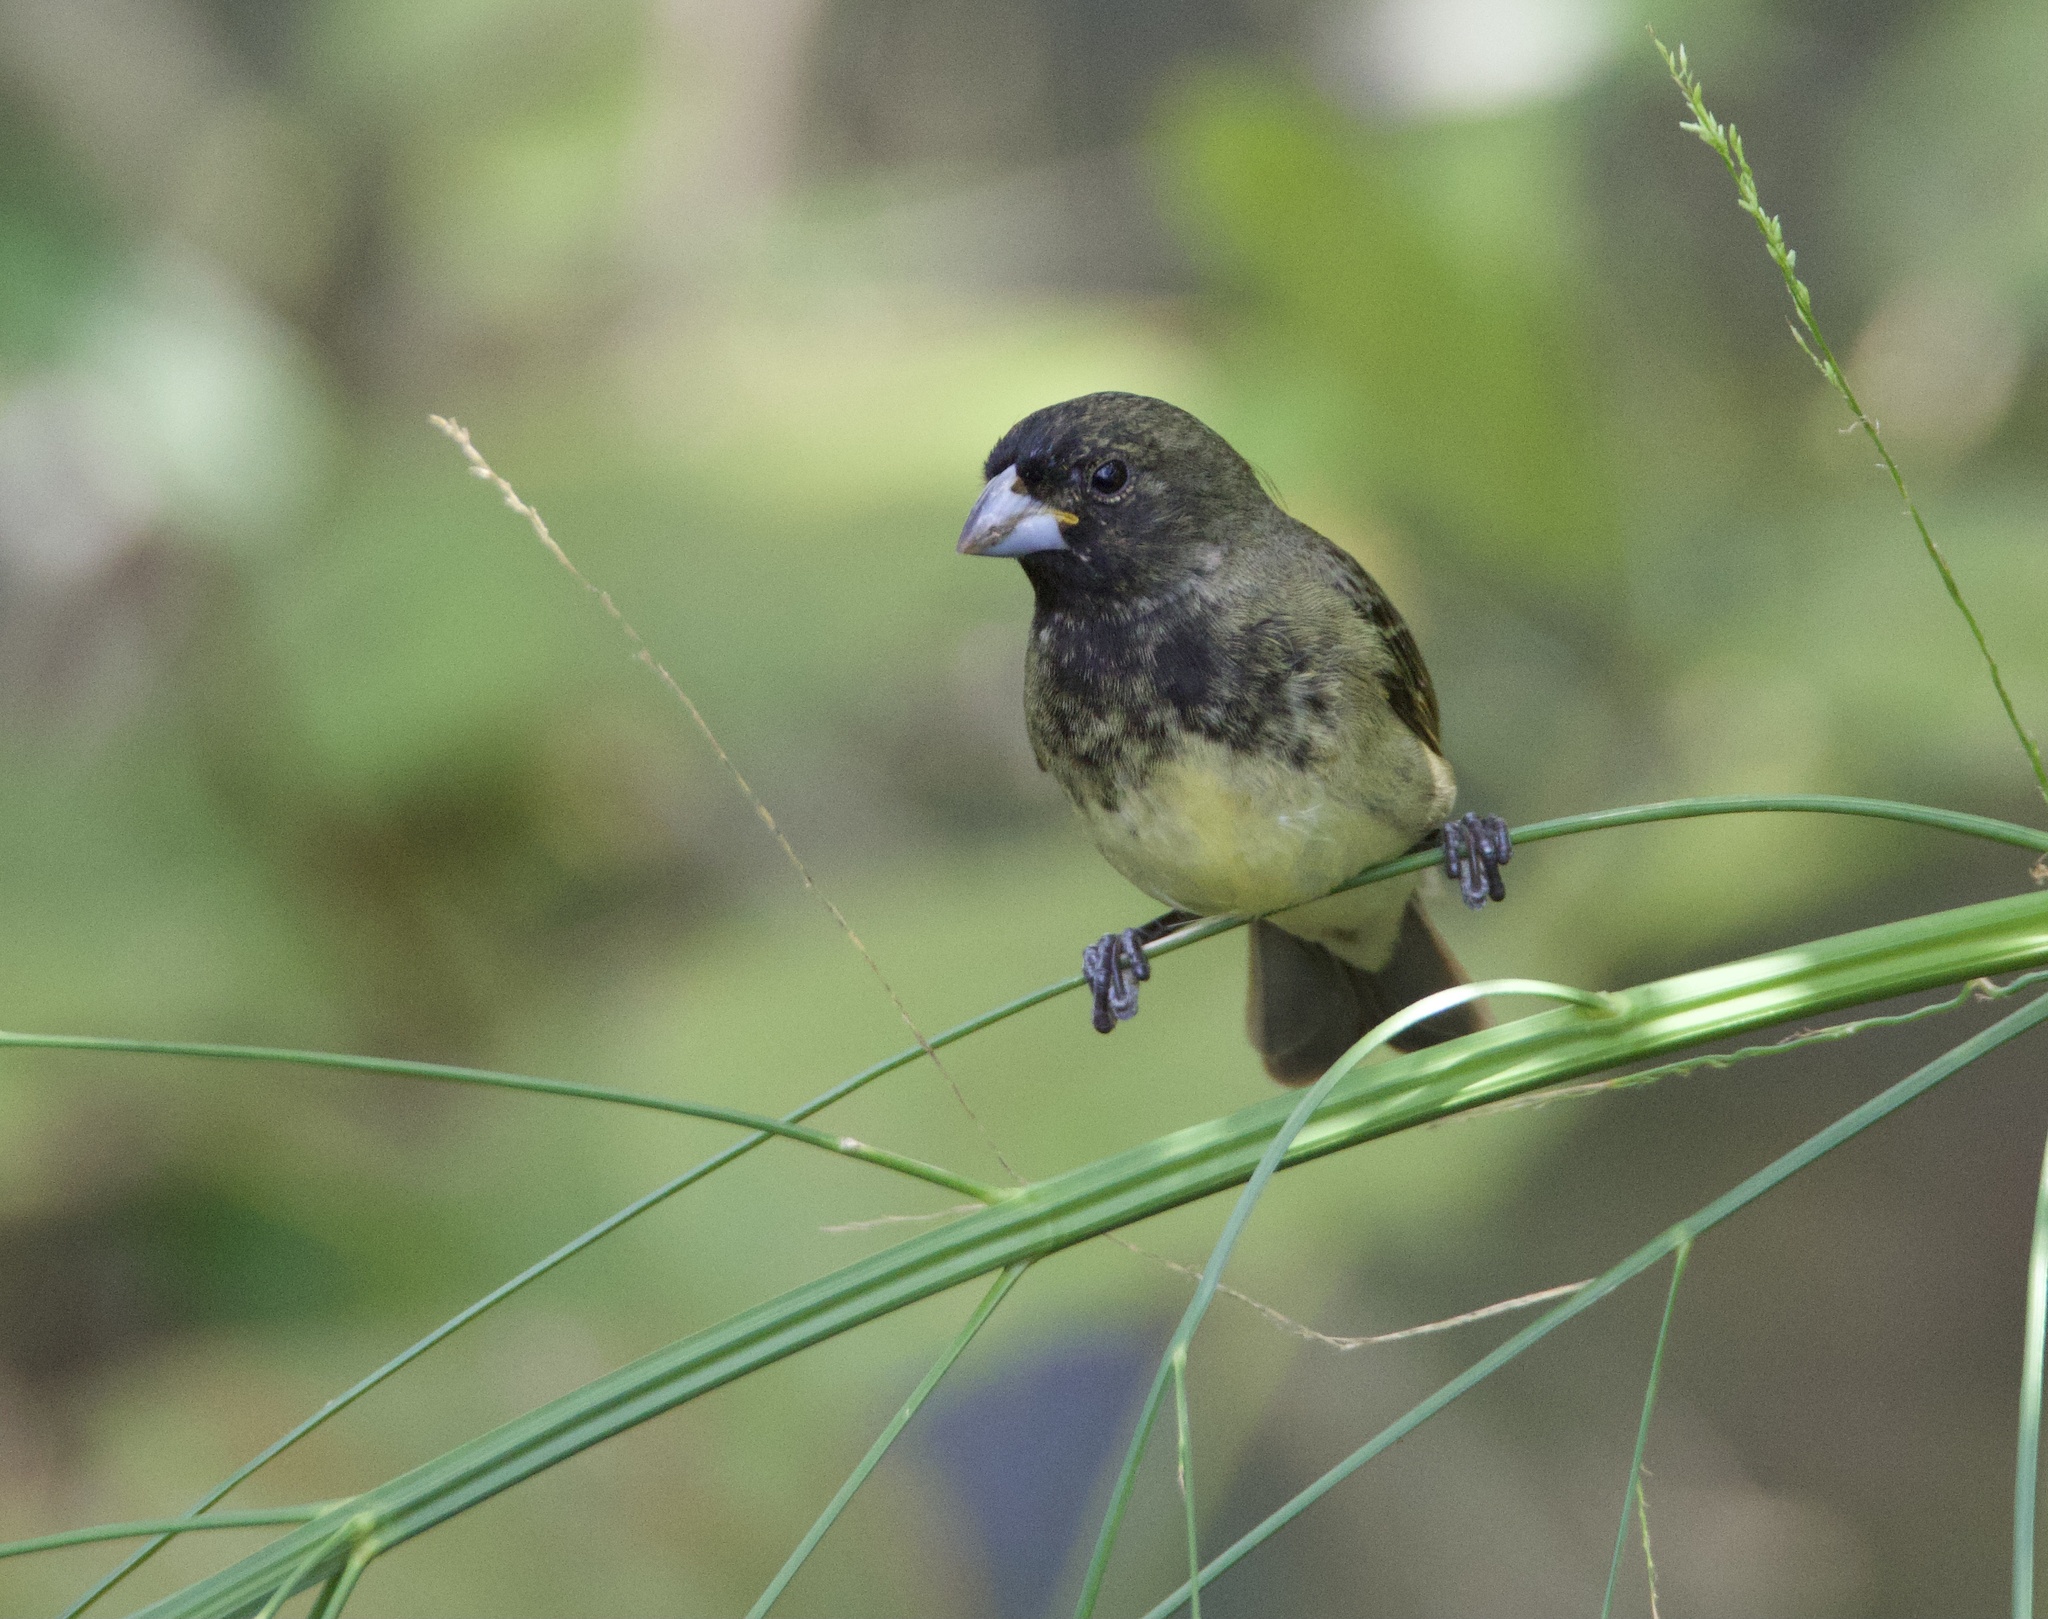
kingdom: Animalia
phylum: Chordata
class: Aves
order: Passeriformes
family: Thraupidae
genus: Sporophila
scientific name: Sporophila nigricollis
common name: Yellow-bellied seedeater
